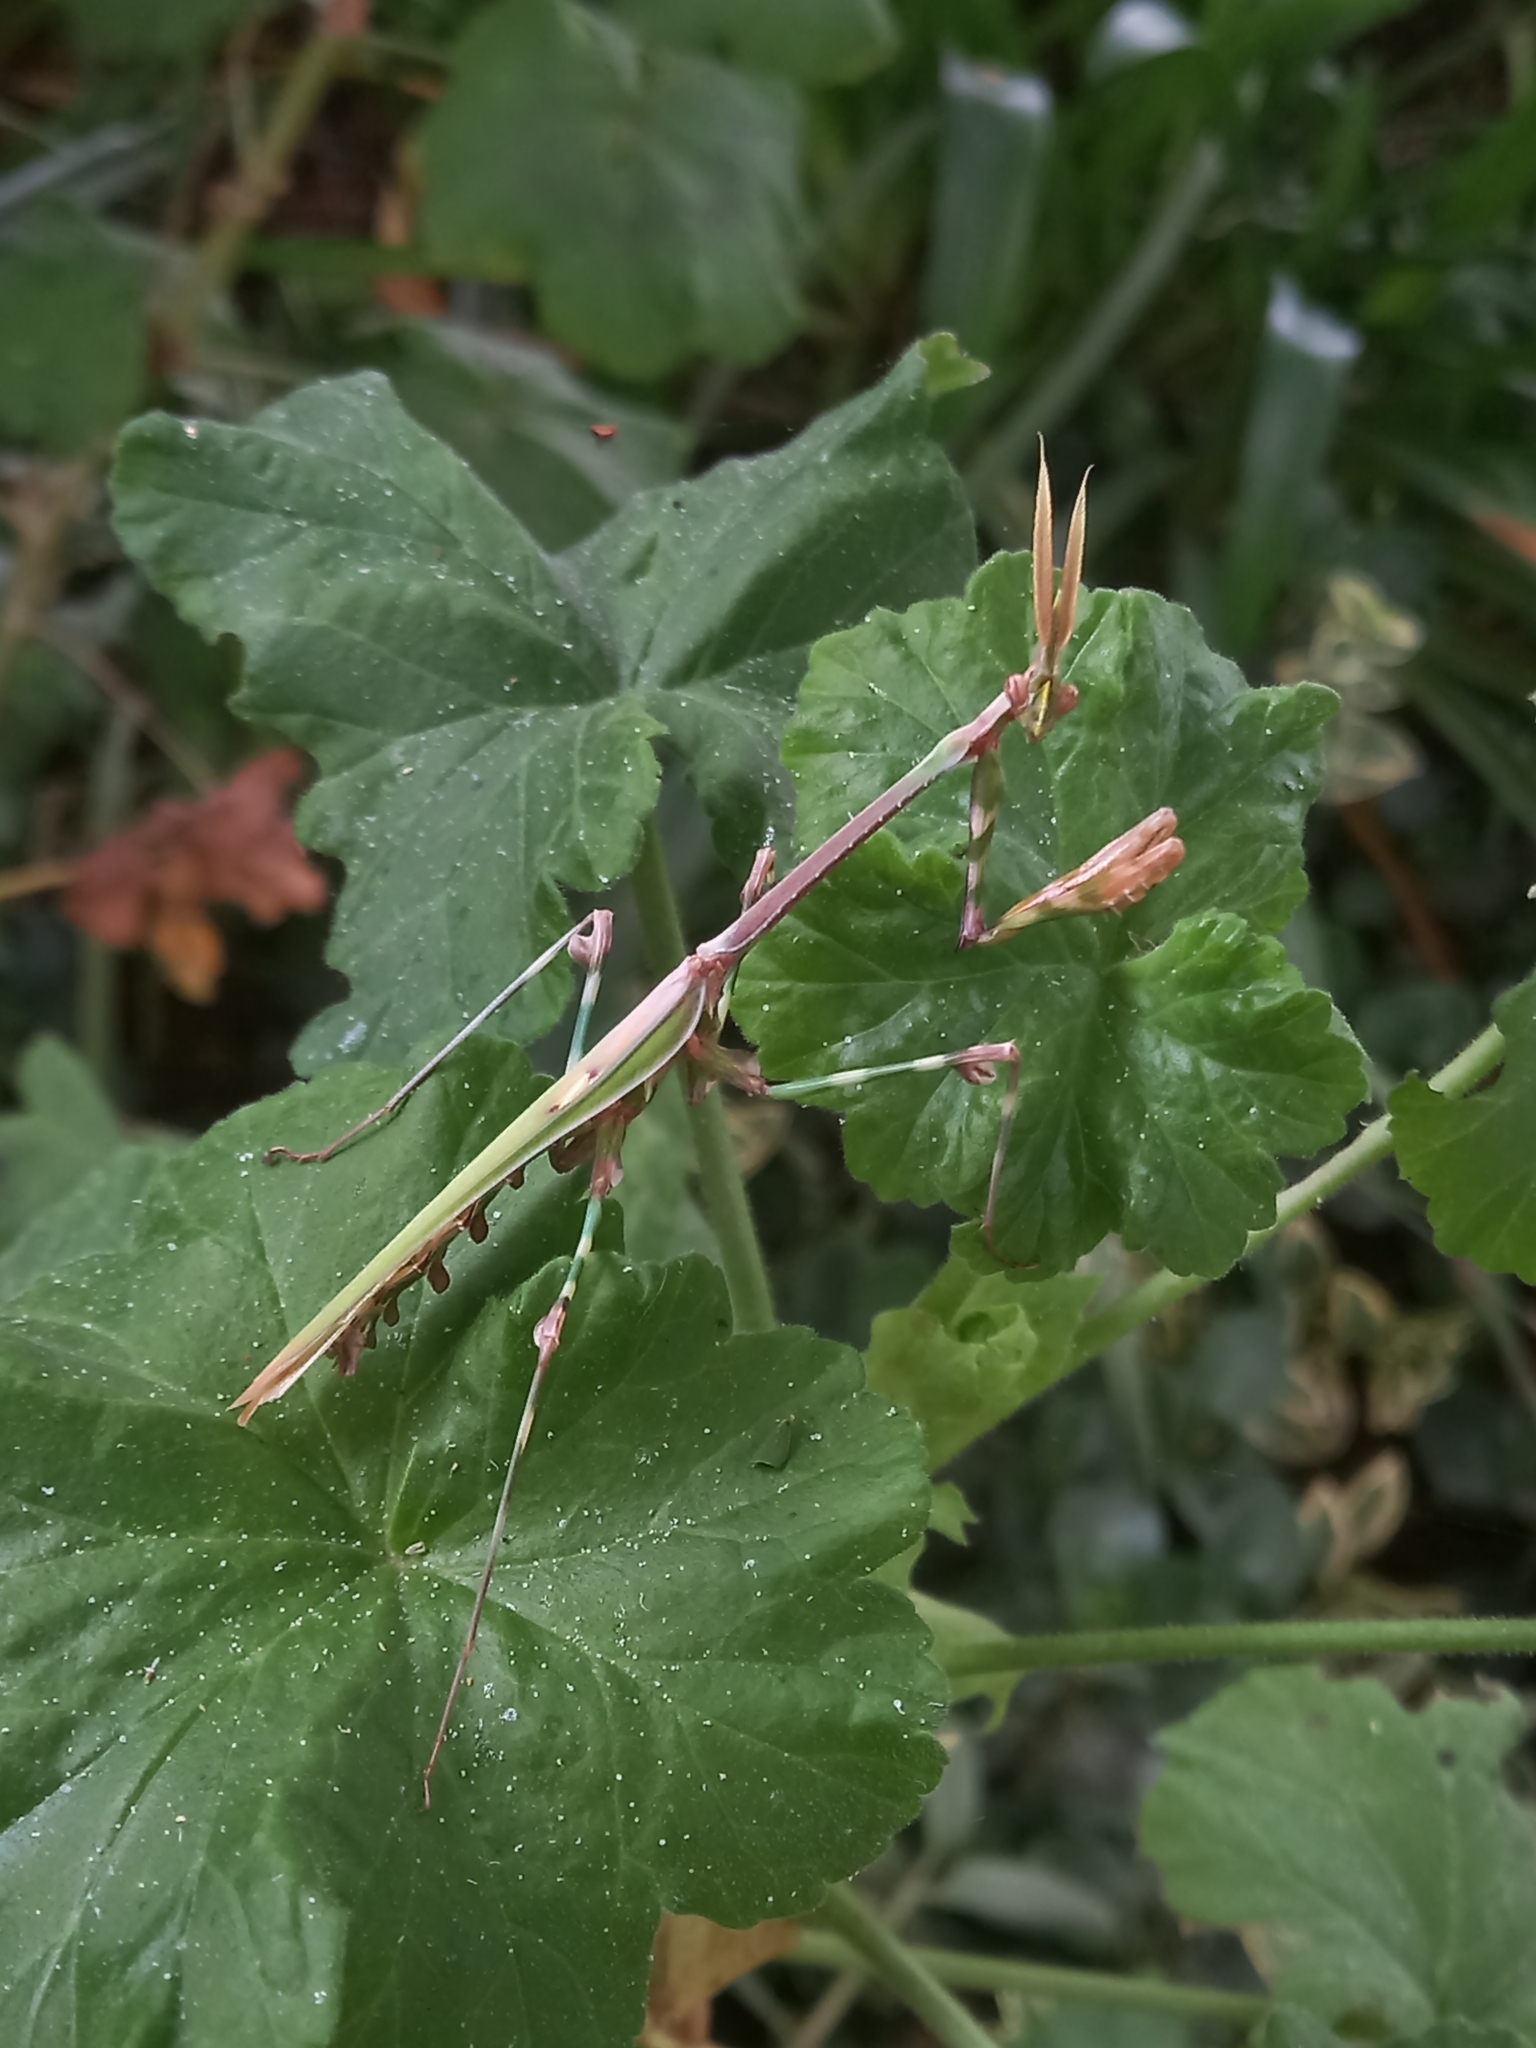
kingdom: Animalia
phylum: Arthropoda
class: Insecta
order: Mantodea
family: Empusidae
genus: Empusa
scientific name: Empusa binotata
